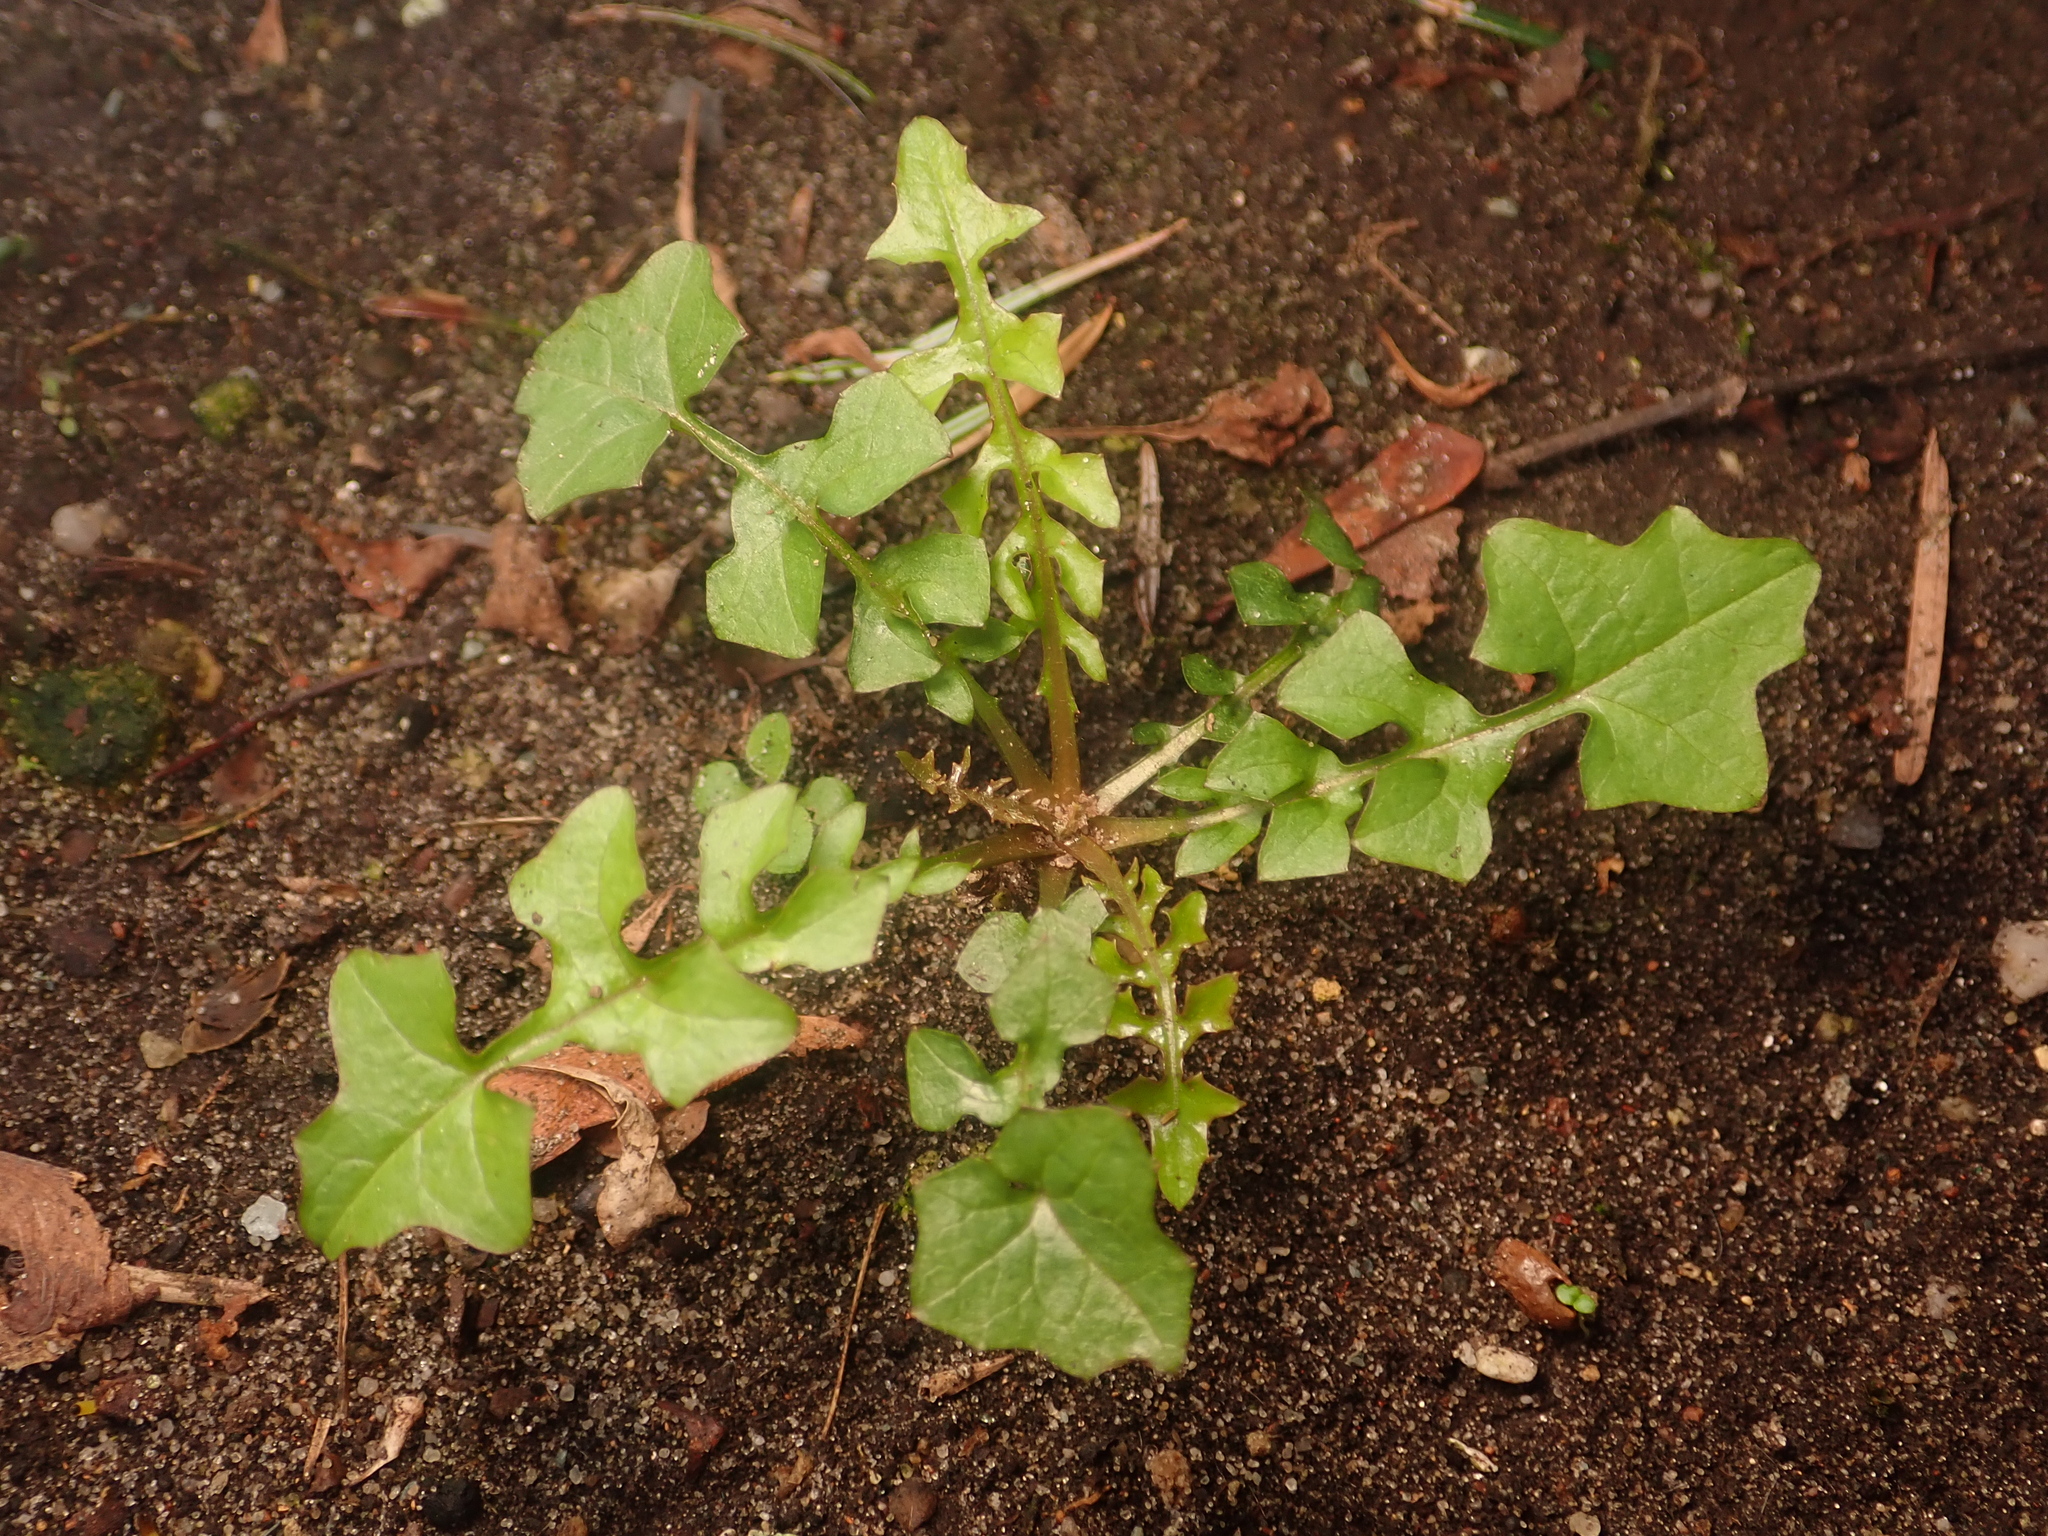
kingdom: Plantae
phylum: Tracheophyta
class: Magnoliopsida
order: Asterales
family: Asteraceae
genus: Mycelis
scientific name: Mycelis muralis
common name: Wall lettuce
